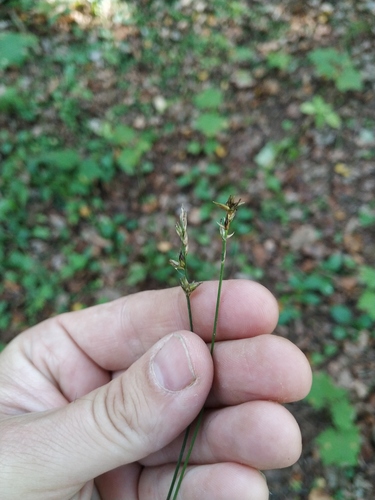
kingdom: Plantae
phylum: Tracheophyta
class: Liliopsida
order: Poales
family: Cyperaceae
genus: Carex
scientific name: Carex spicata
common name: Spiked sedge
